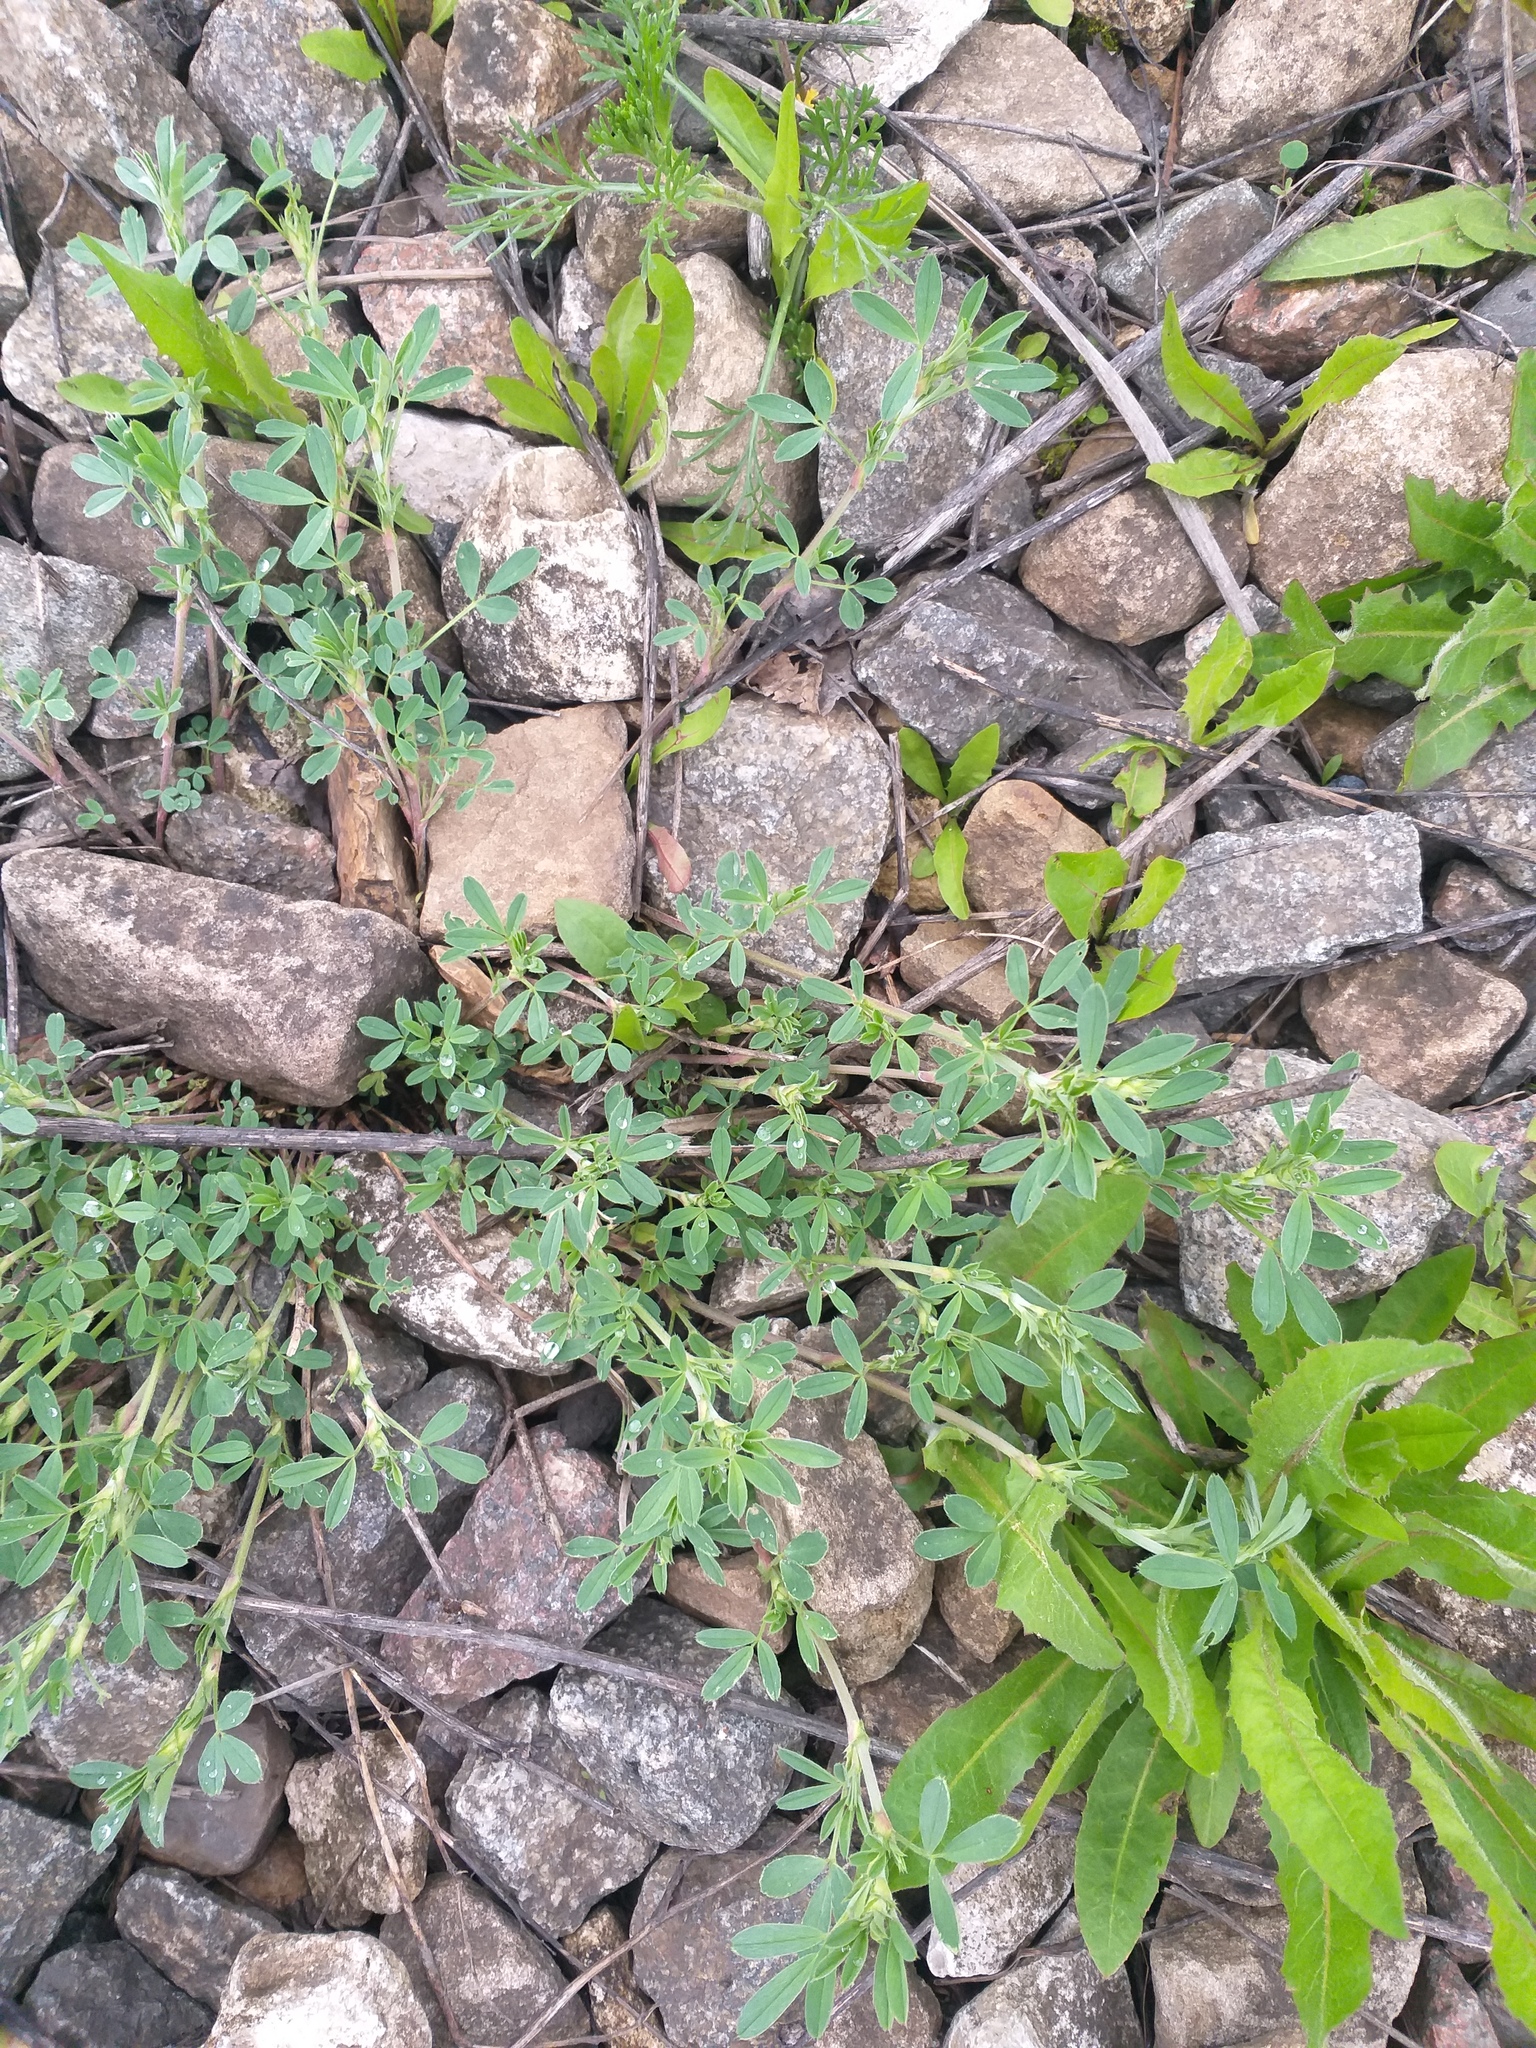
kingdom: Plantae
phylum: Tracheophyta
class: Magnoliopsida
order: Fabales
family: Fabaceae
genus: Medicago
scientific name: Medicago
